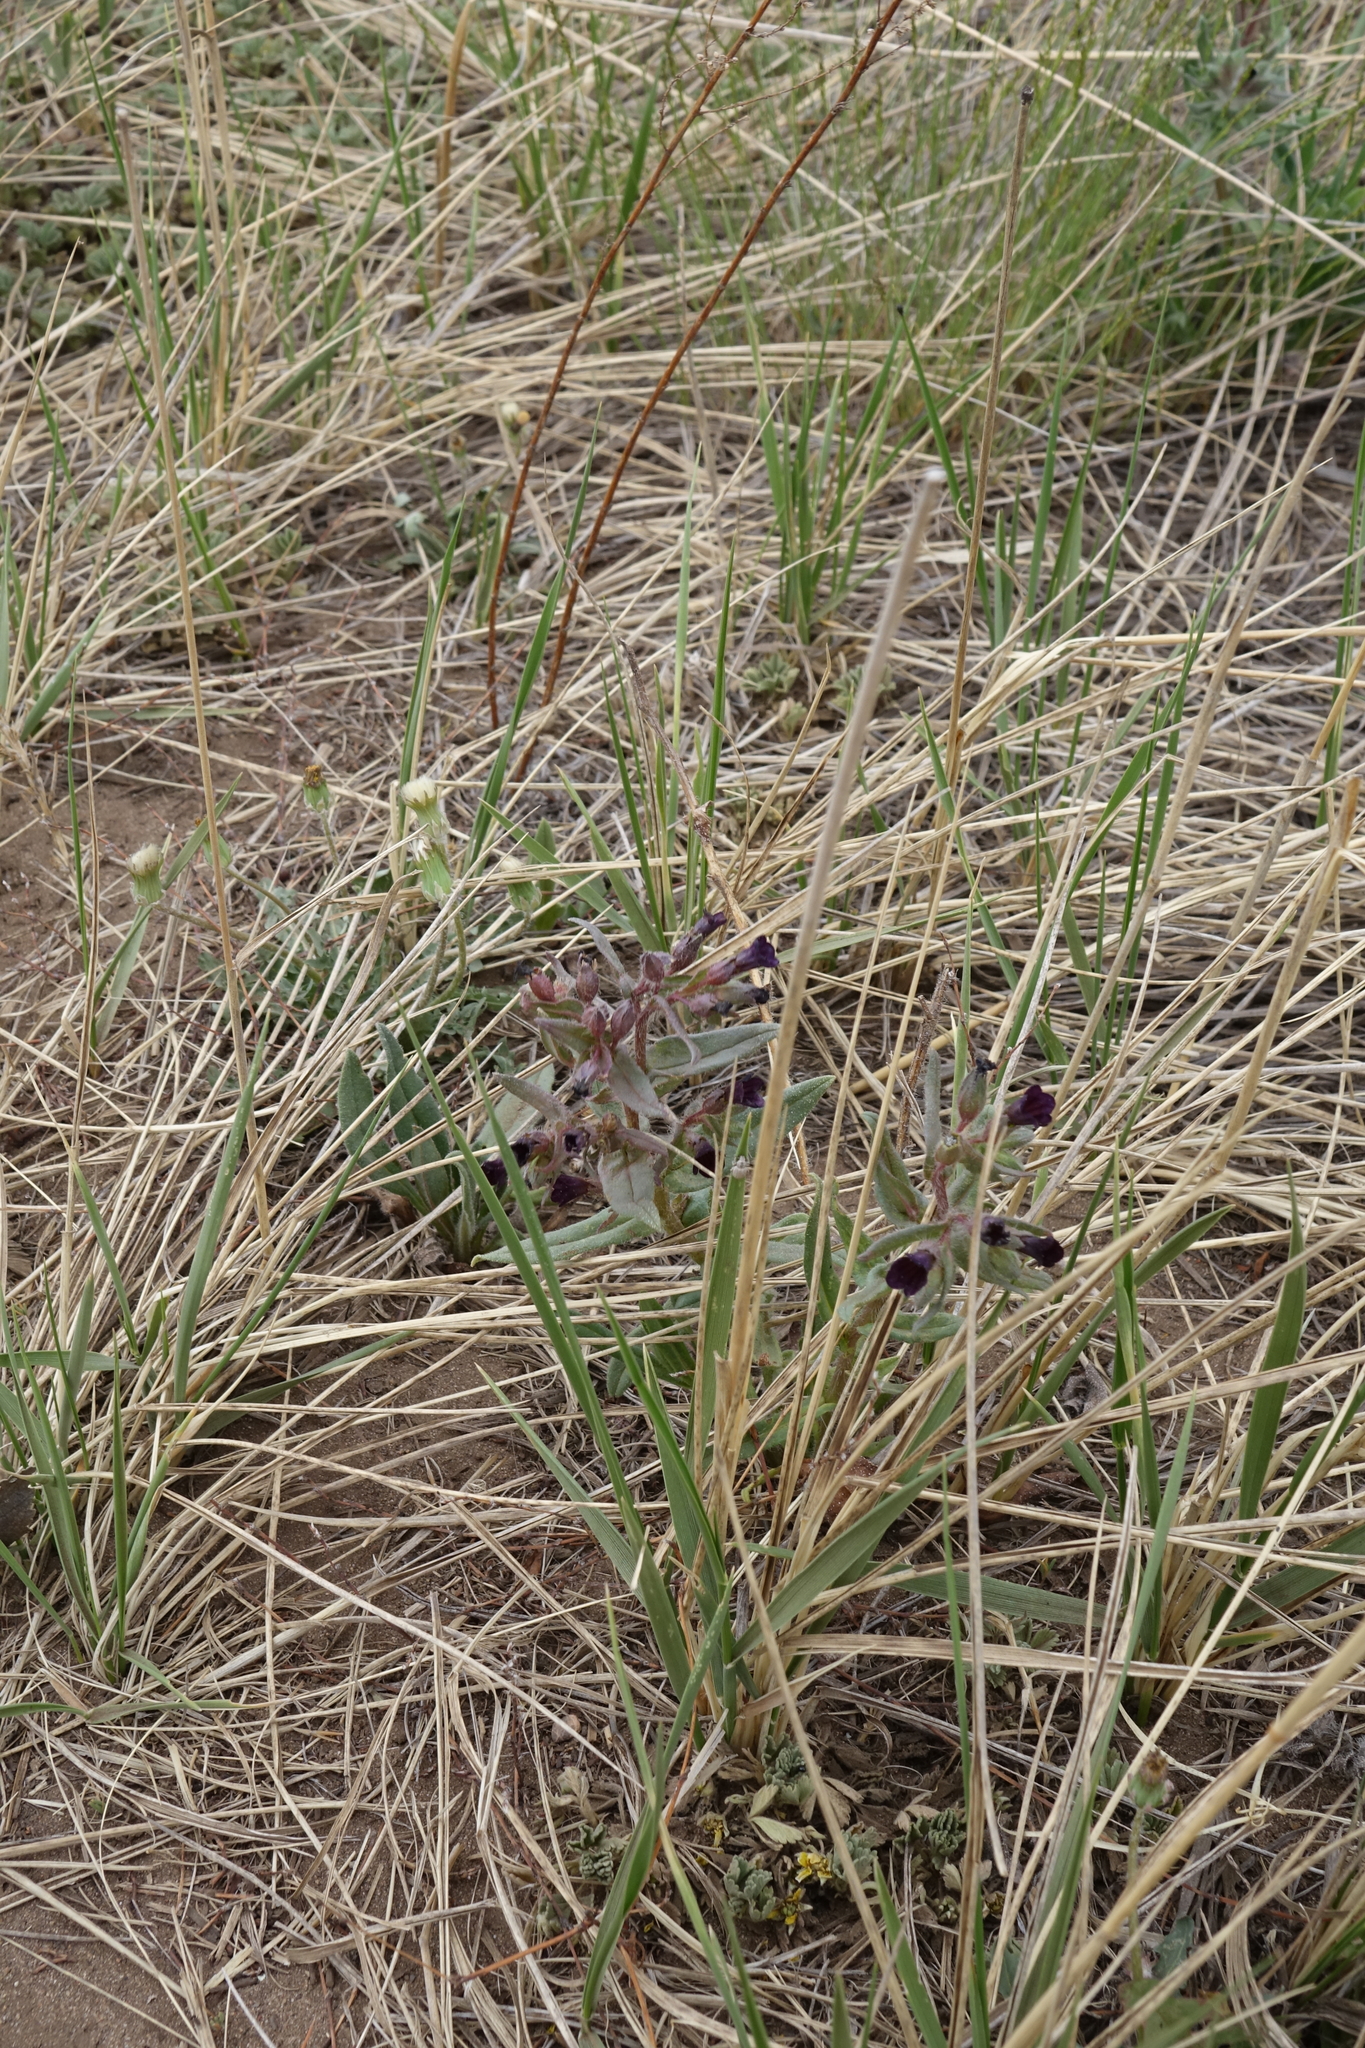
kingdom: Plantae
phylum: Tracheophyta
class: Magnoliopsida
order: Boraginales
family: Boraginaceae
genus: Nonea
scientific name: Nonea pulla
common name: Brown nonea
